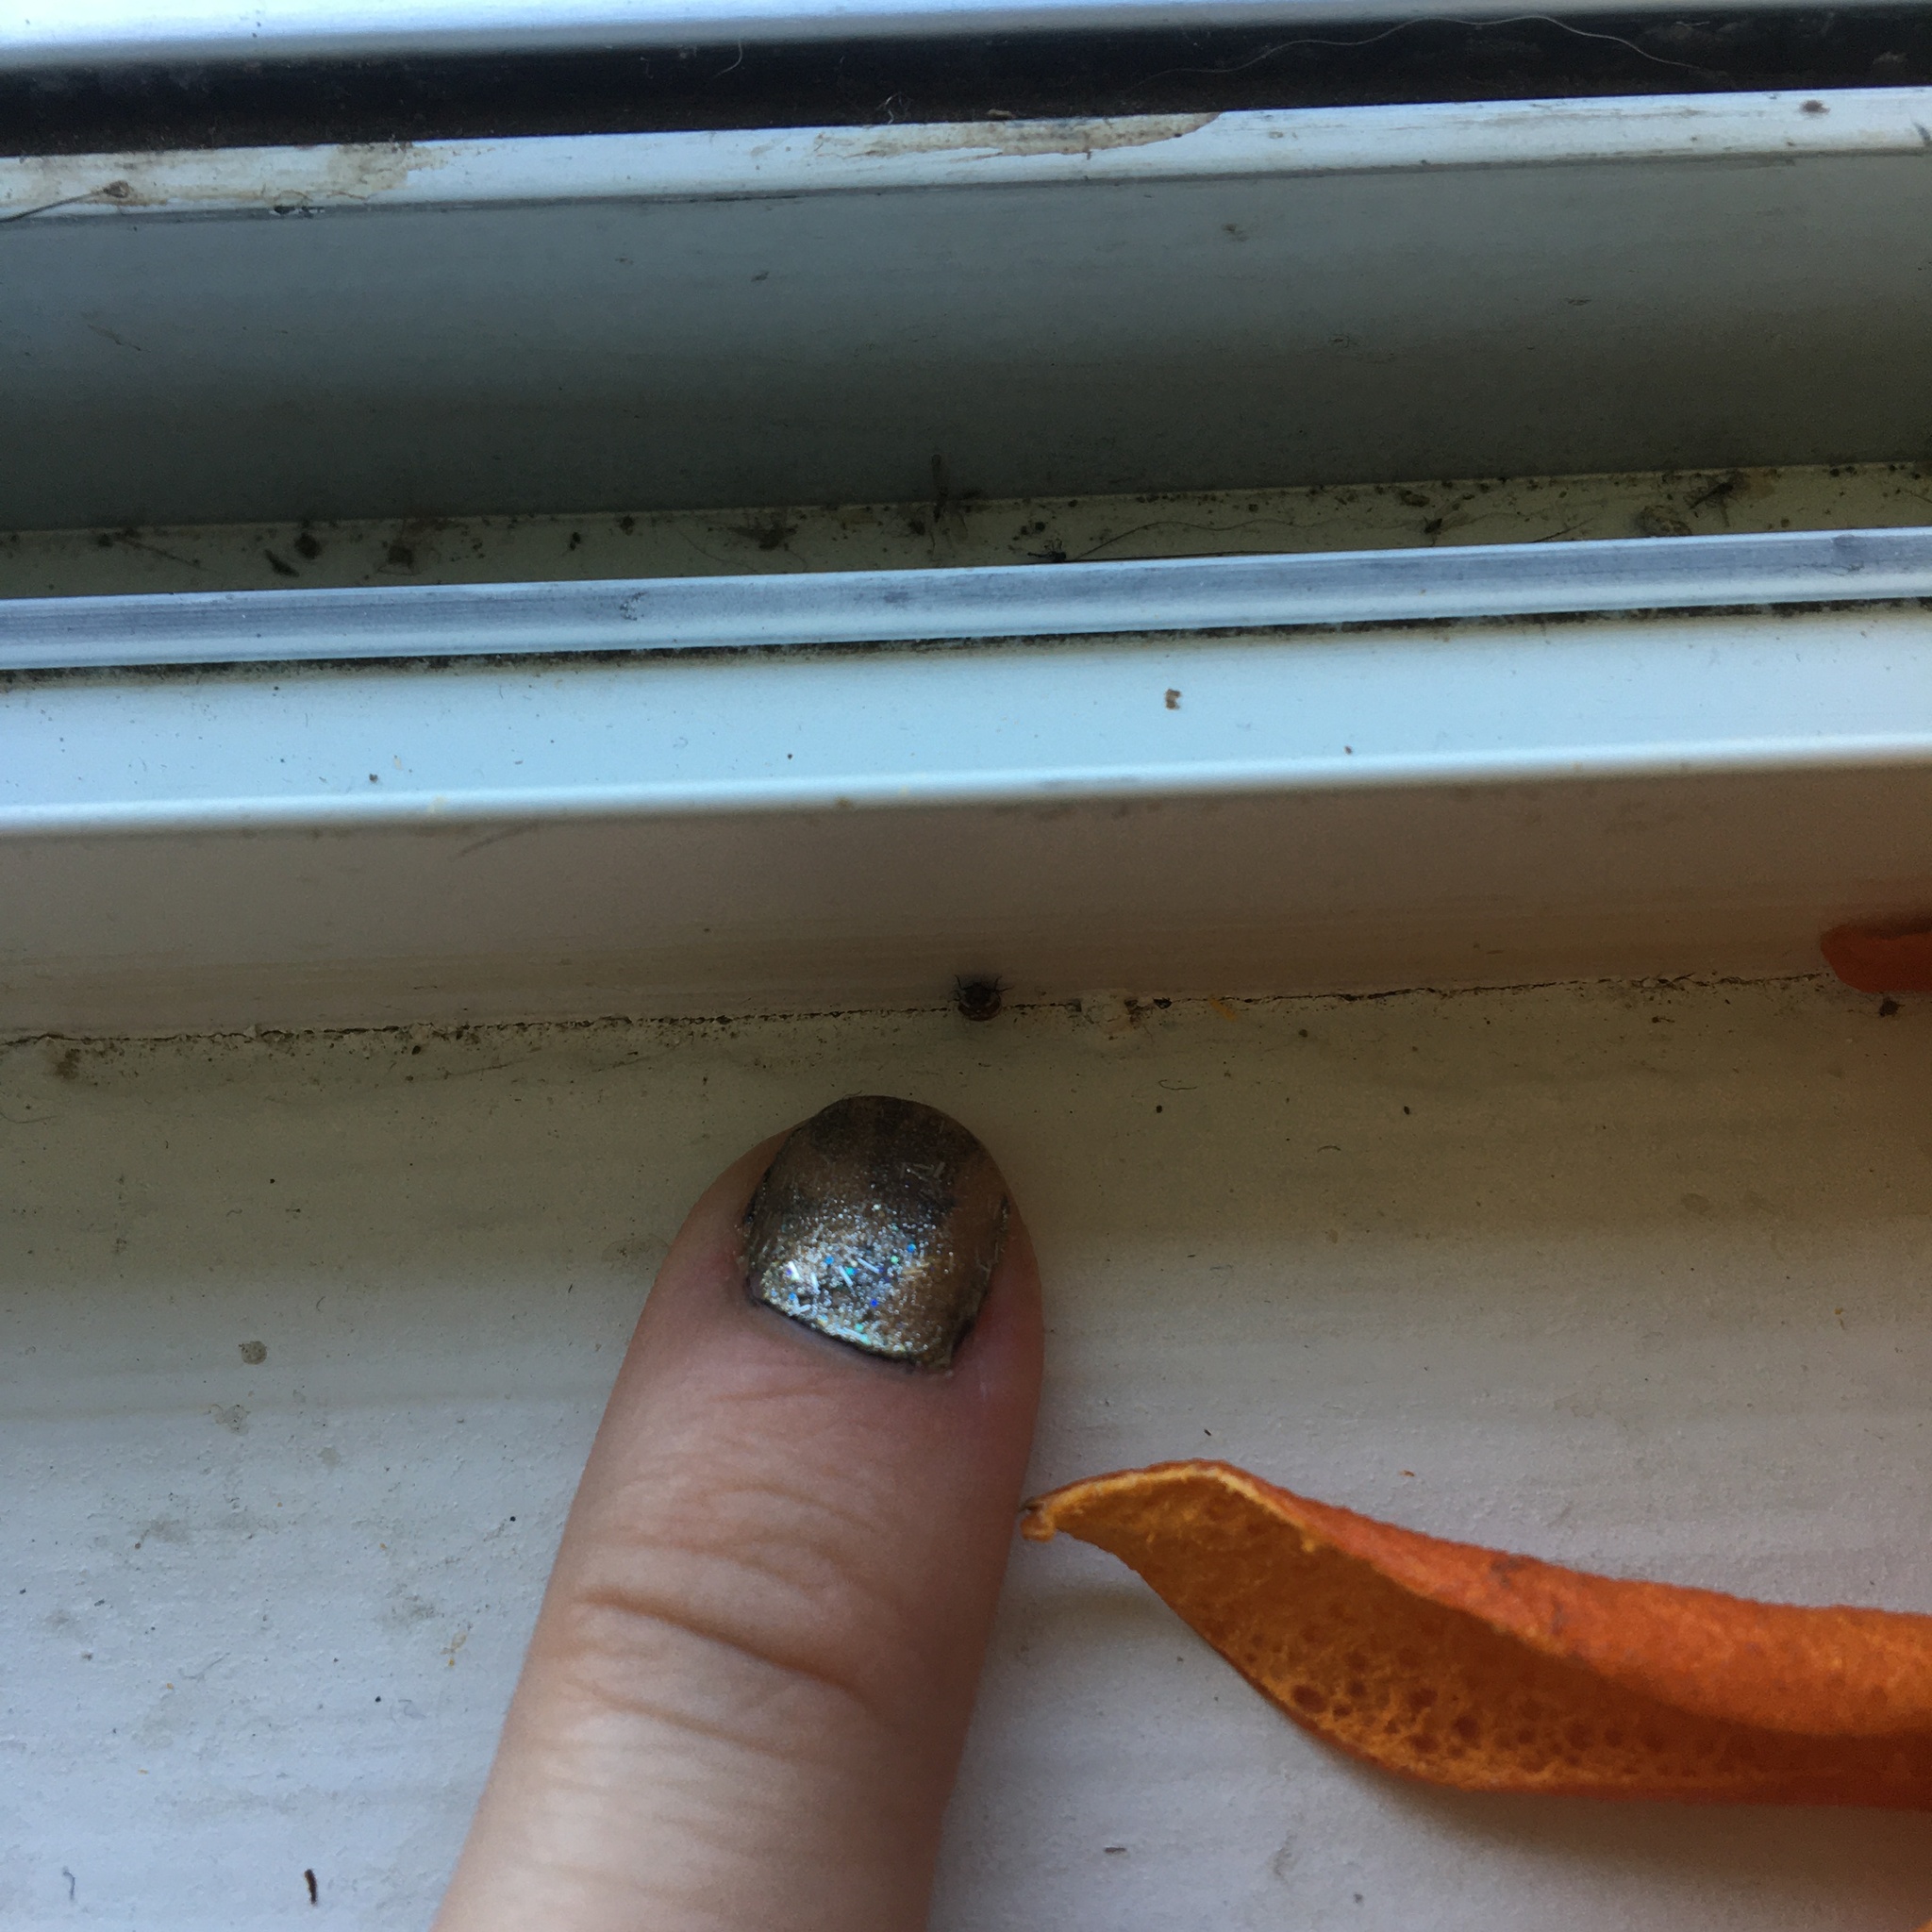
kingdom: Animalia
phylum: Arthropoda
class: Insecta
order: Coleoptera
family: Dermestidae
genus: Anthrenus
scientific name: Anthrenus verbasci
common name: Varied carpet beetle
